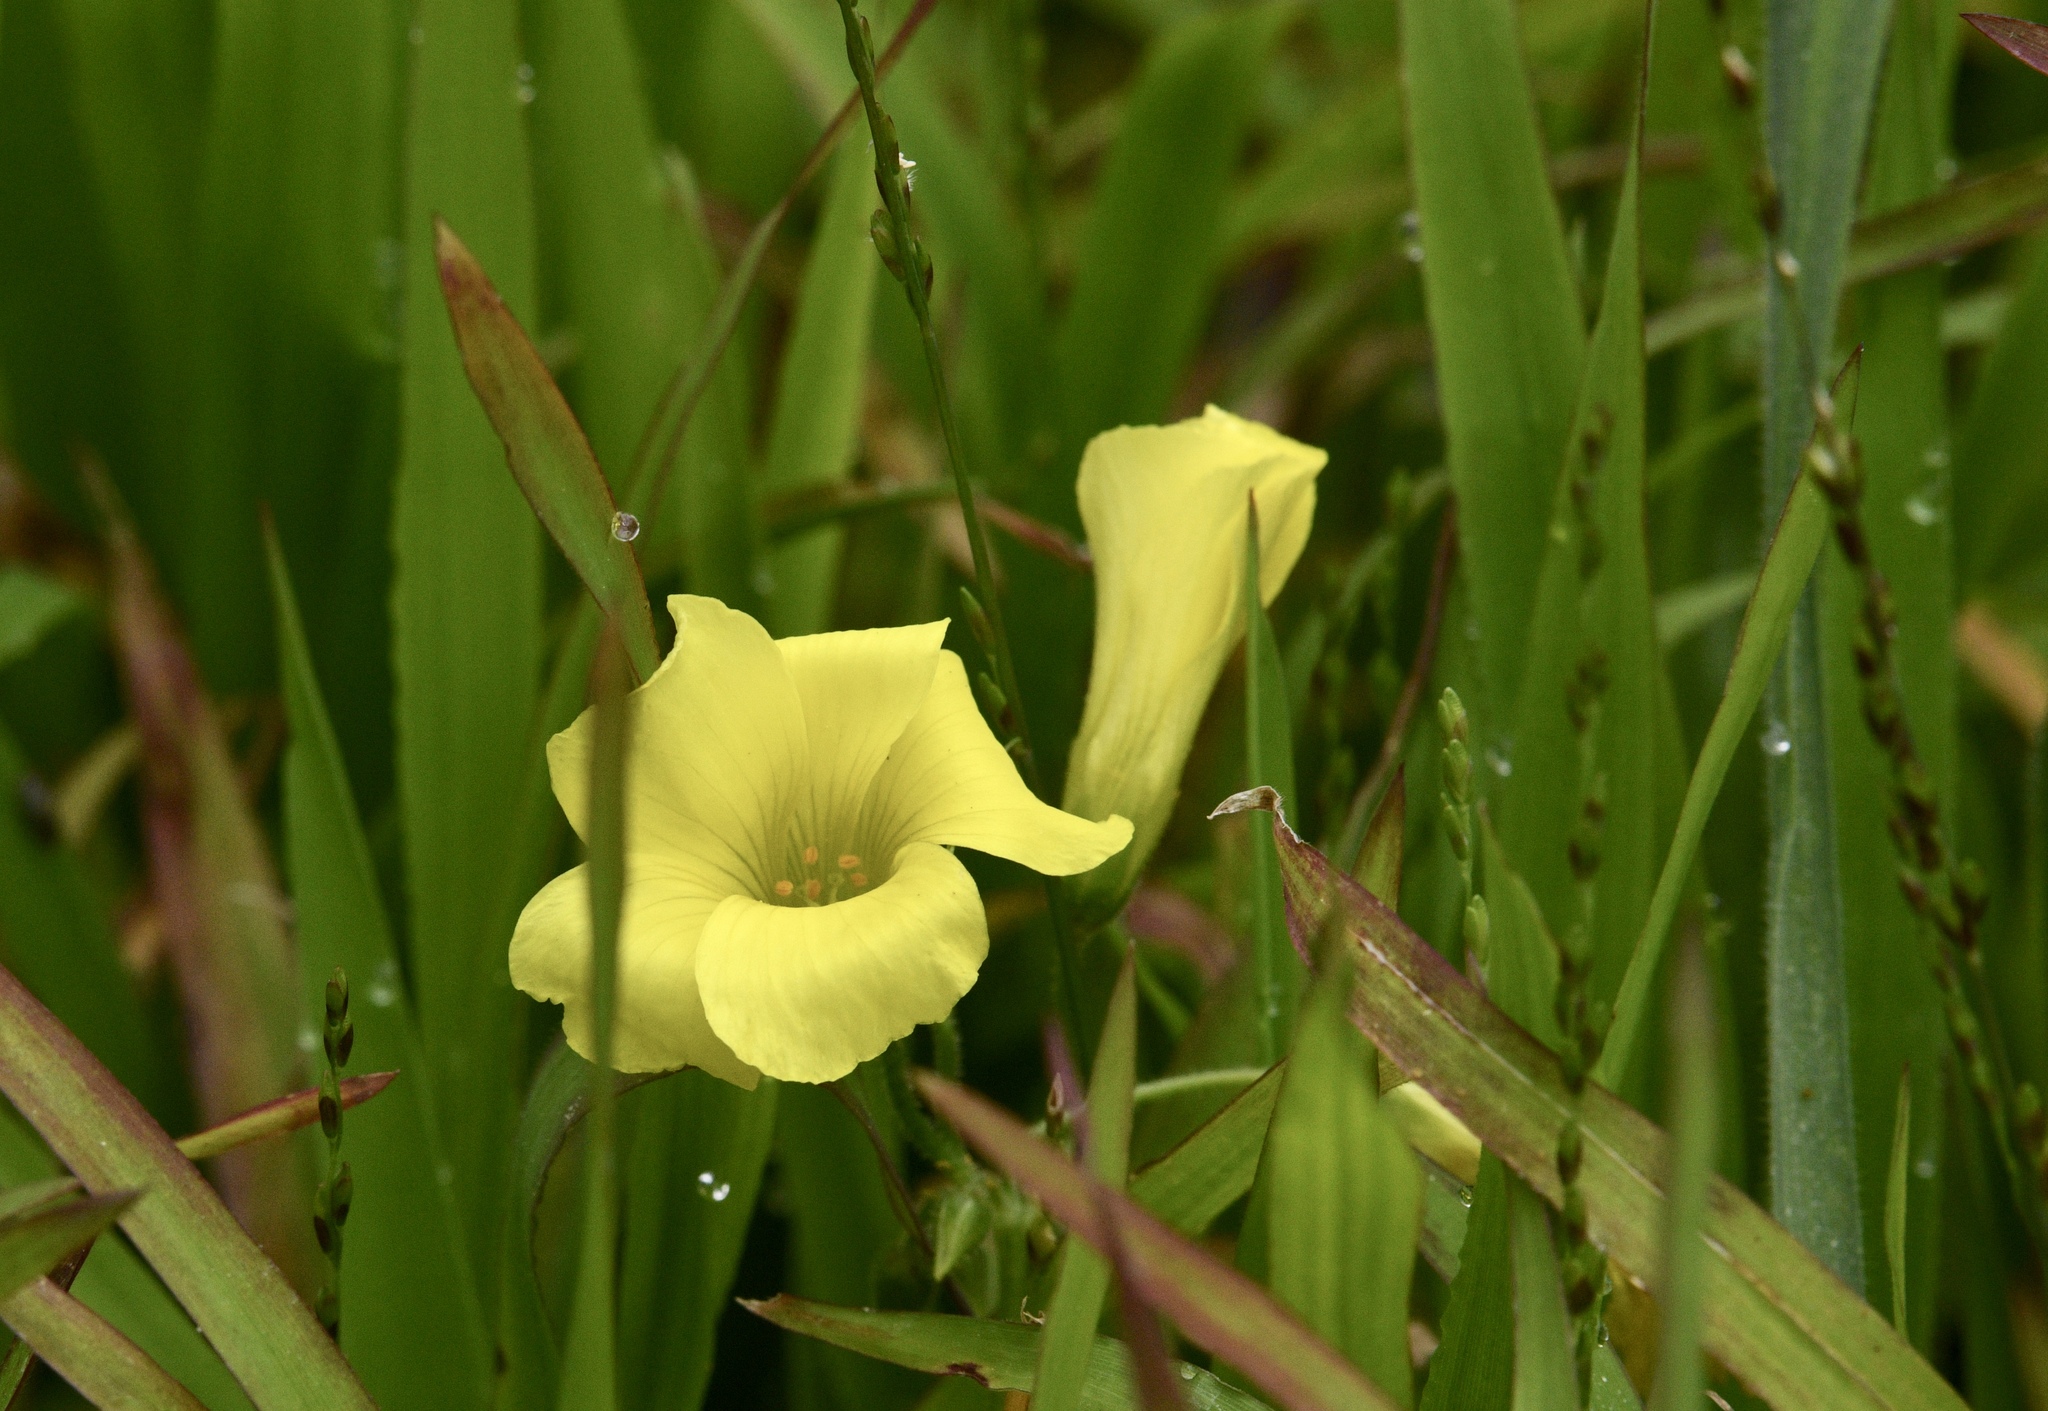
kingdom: Plantae
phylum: Tracheophyta
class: Magnoliopsida
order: Oxalidales
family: Oxalidaceae
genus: Oxalis
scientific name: Oxalis pes-caprae
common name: Bermuda-buttercup
